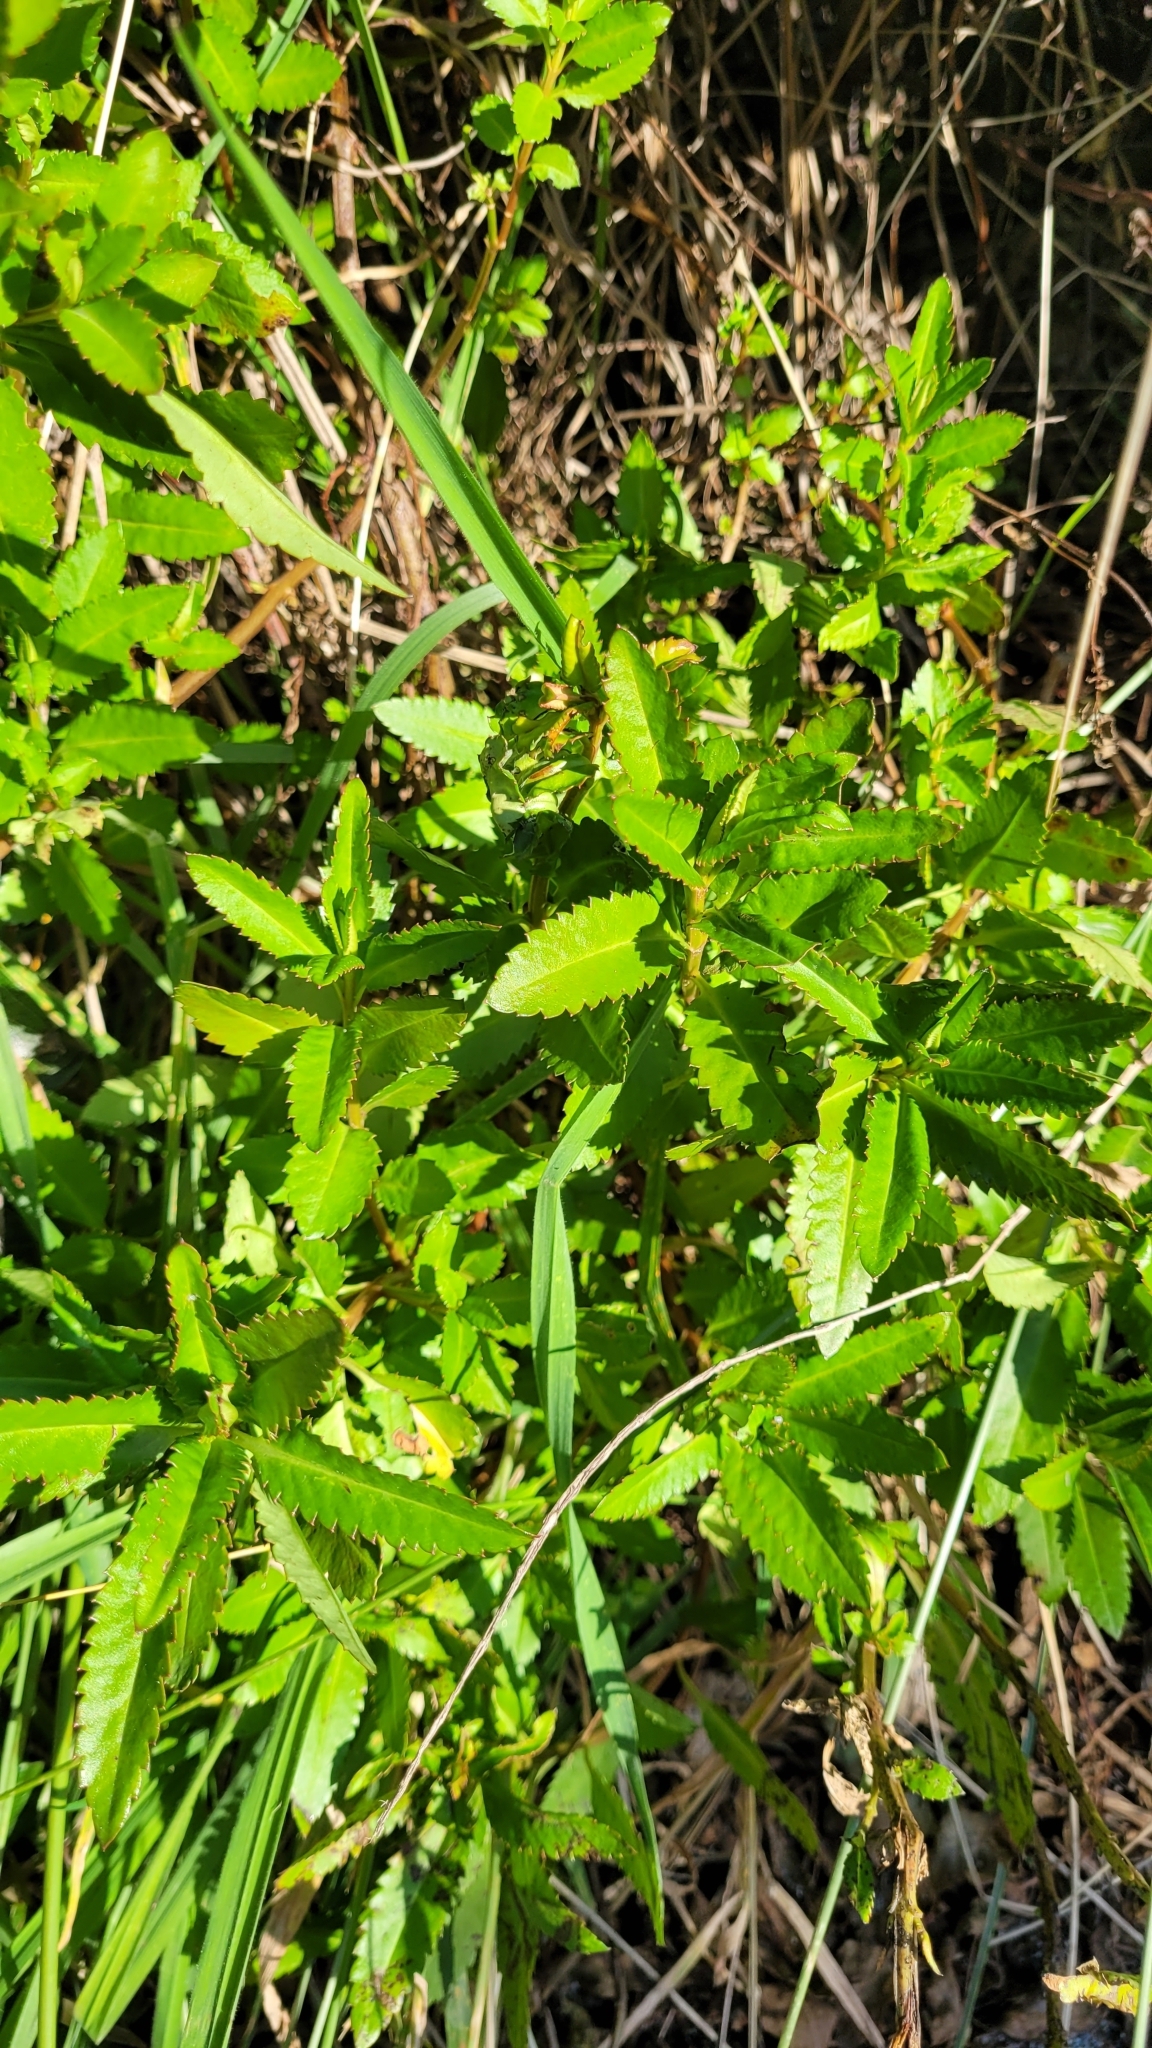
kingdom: Plantae
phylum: Tracheophyta
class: Magnoliopsida
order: Saxifragales
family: Haloragaceae
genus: Haloragis
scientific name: Haloragis erecta
